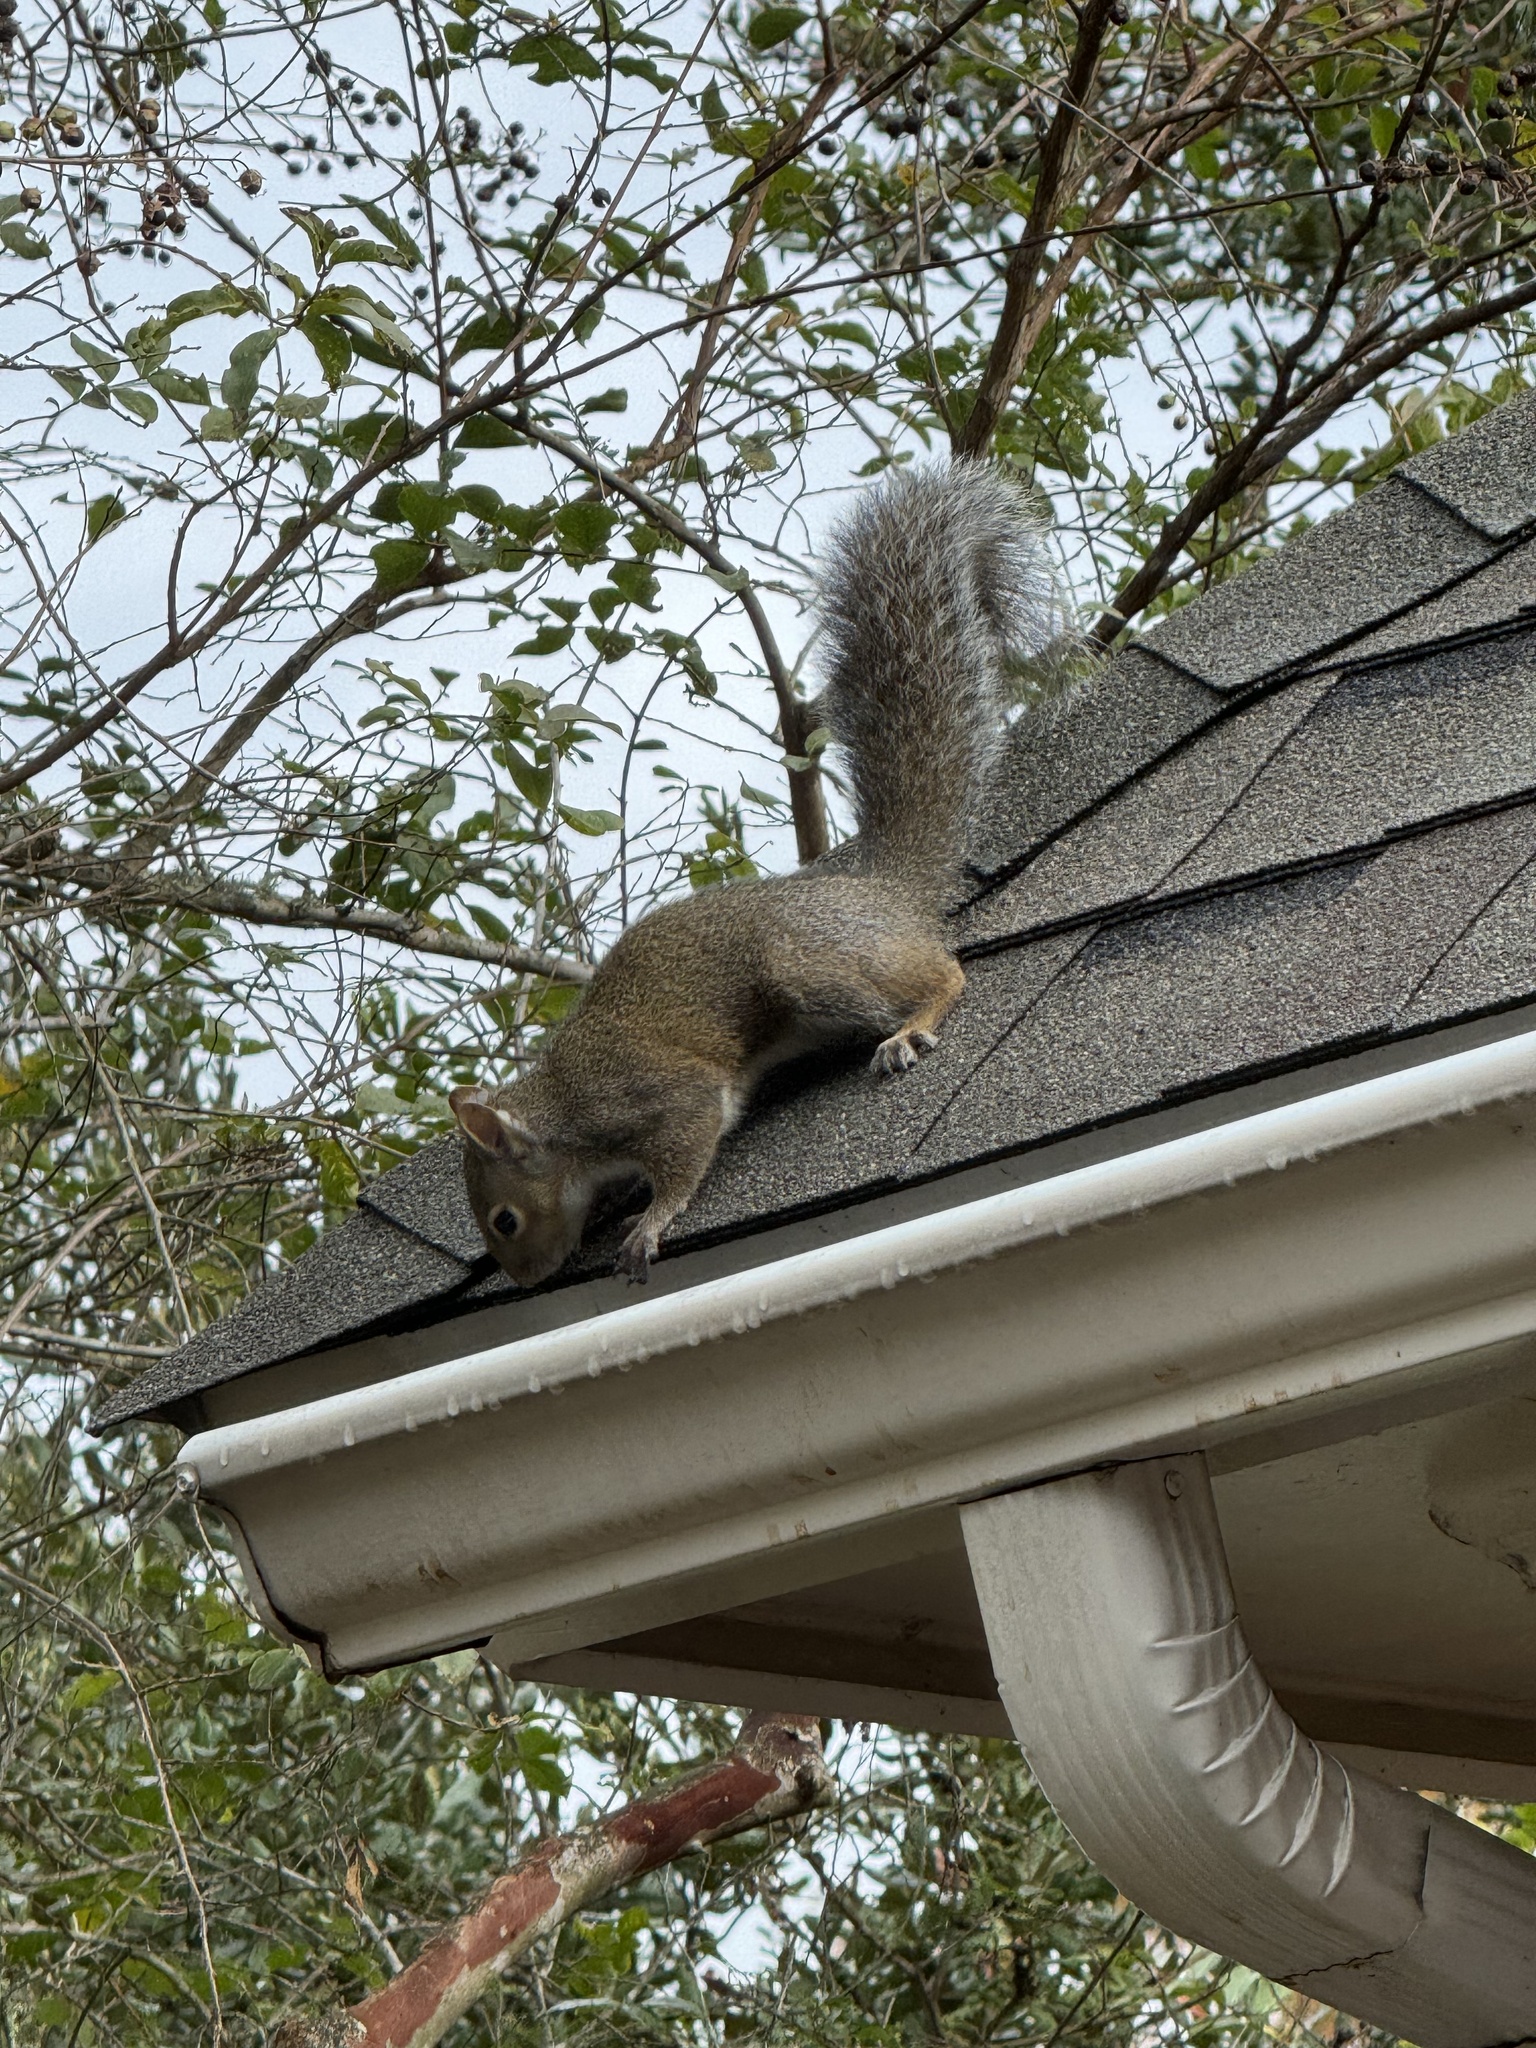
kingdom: Animalia
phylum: Chordata
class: Mammalia
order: Rodentia
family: Sciuridae
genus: Sciurus
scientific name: Sciurus carolinensis
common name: Eastern gray squirrel
